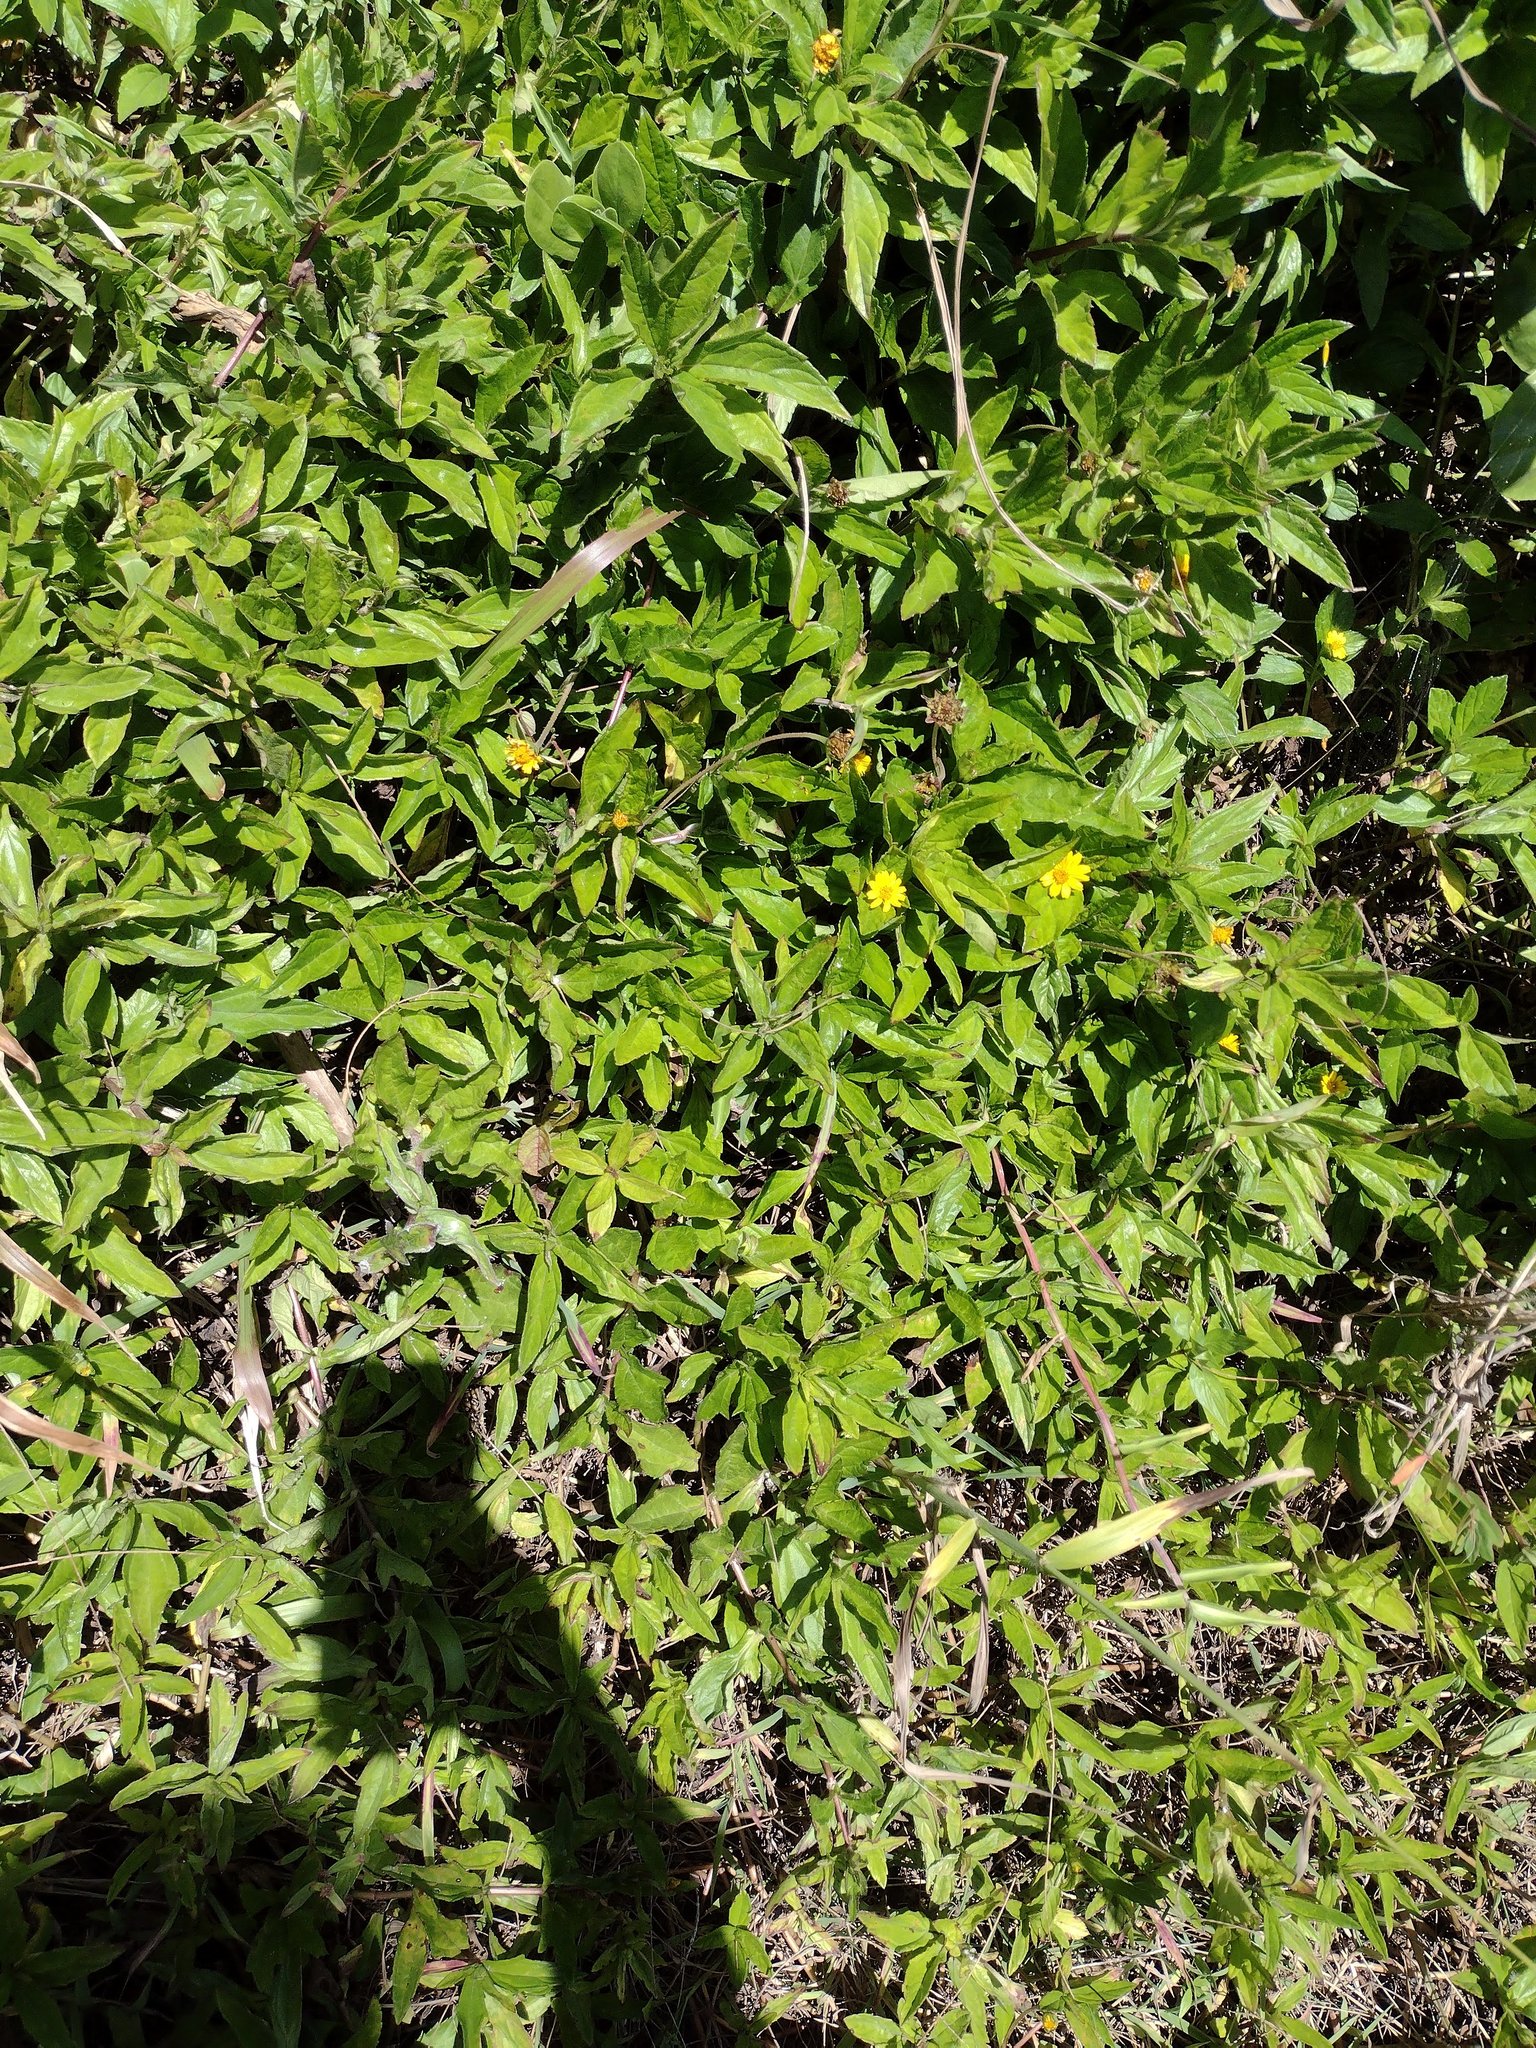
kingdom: Plantae
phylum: Tracheophyta
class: Magnoliopsida
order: Asterales
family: Asteraceae
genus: Sphagneticola
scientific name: Sphagneticola trilobata
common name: Bay biscayne creeping-oxeye
